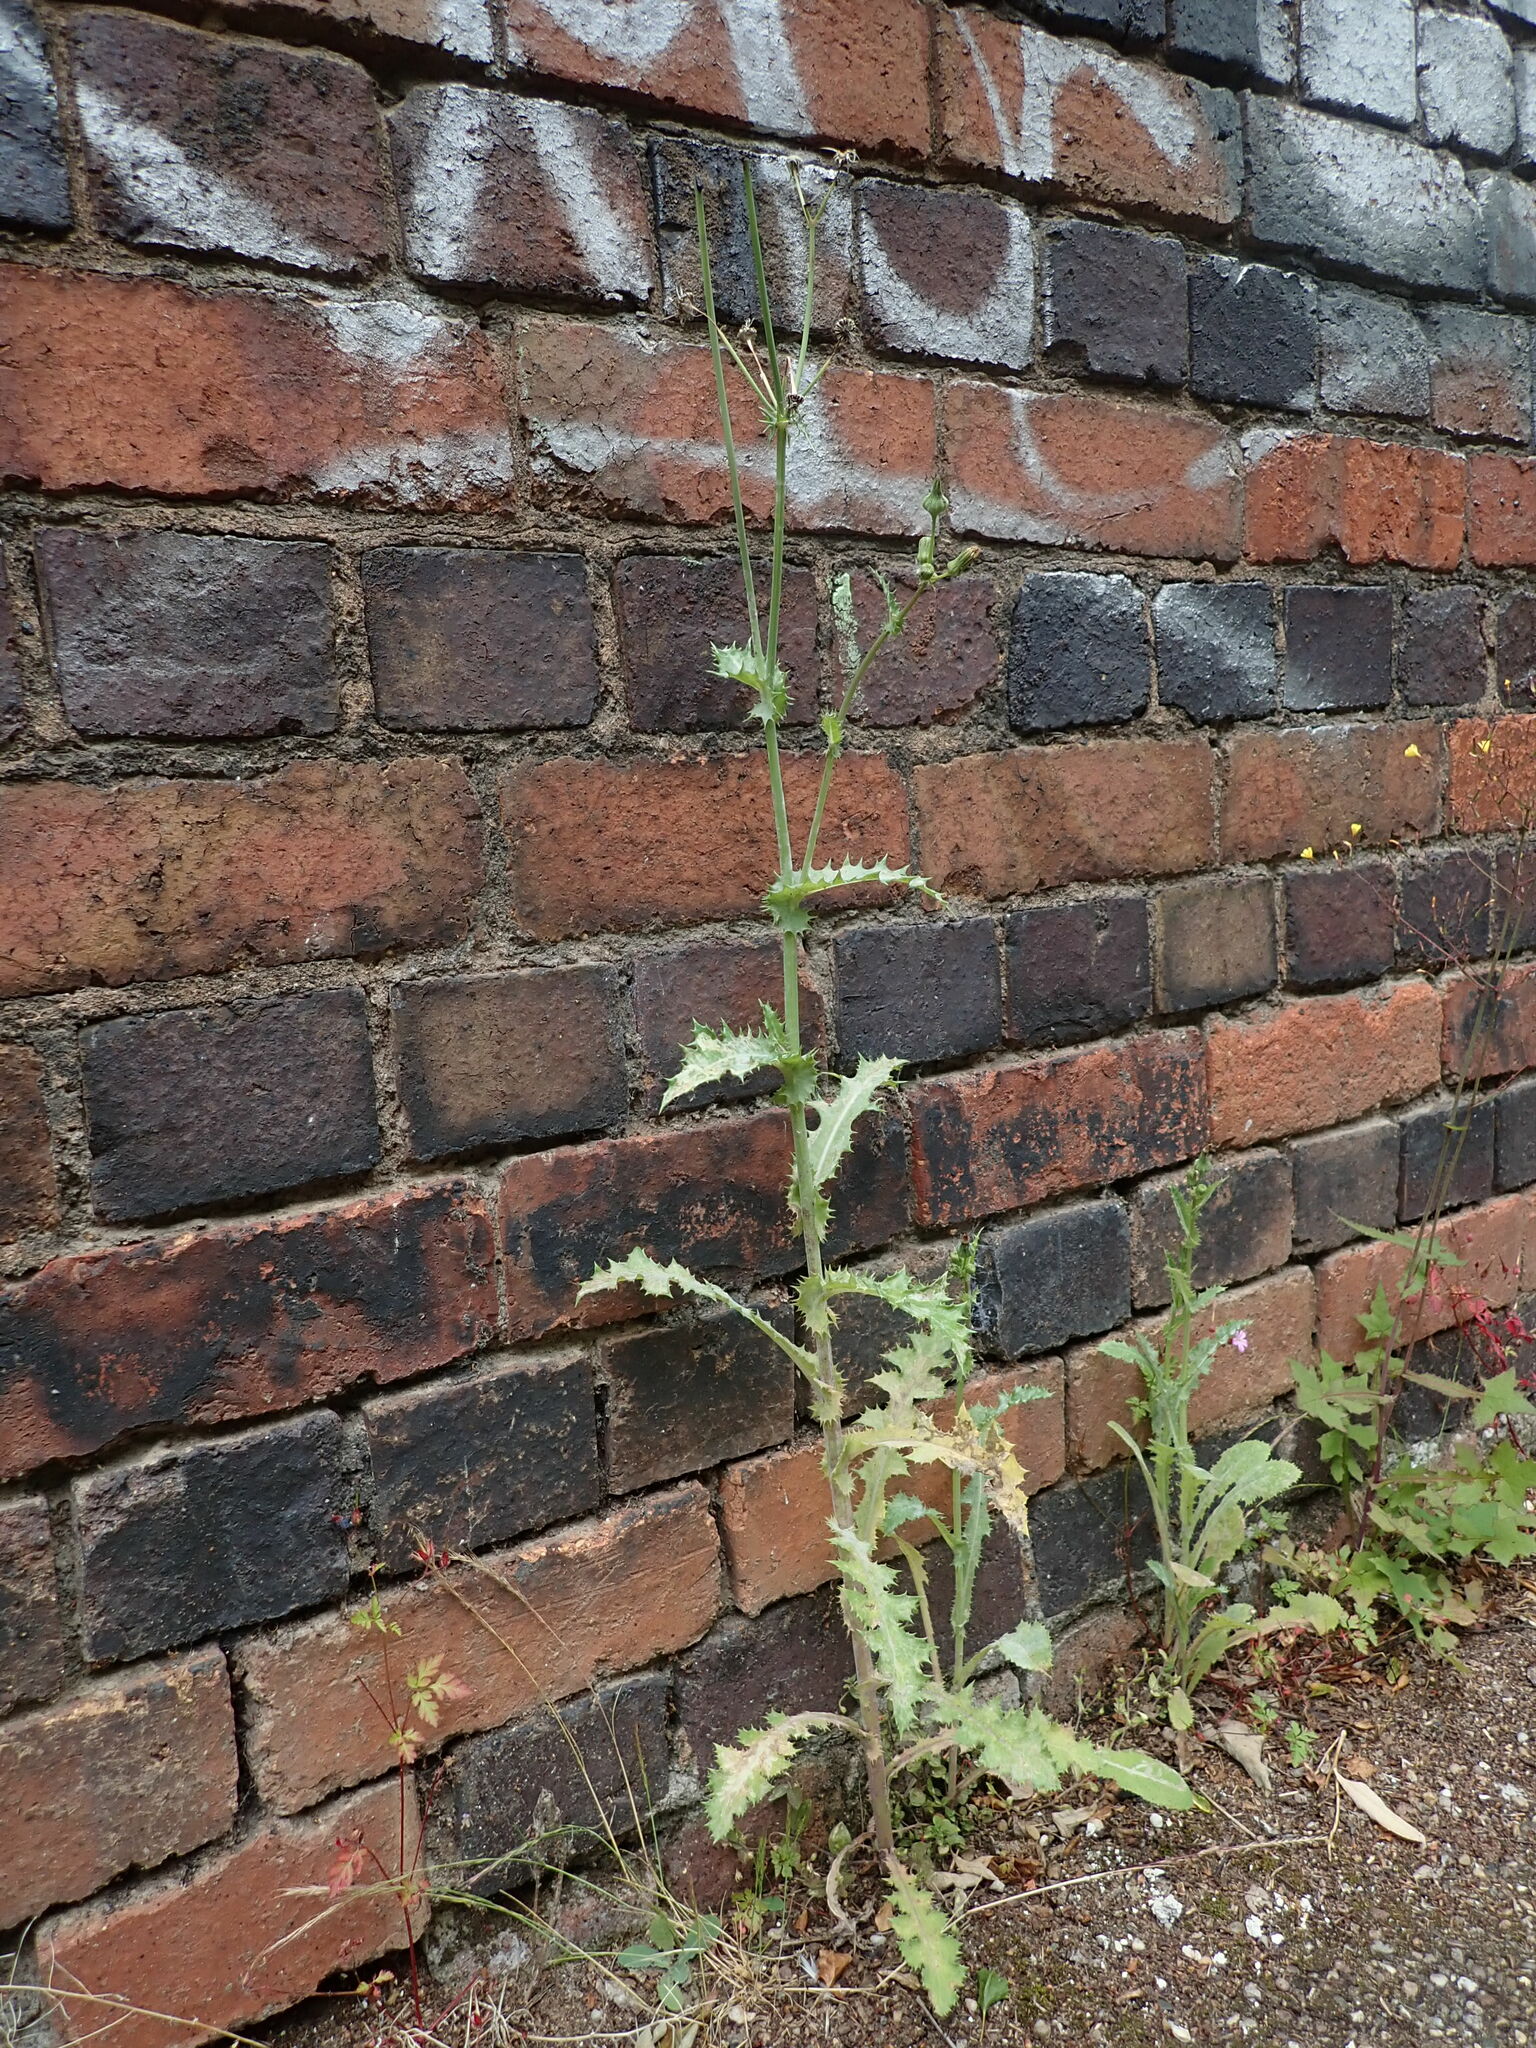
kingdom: Plantae
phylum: Tracheophyta
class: Magnoliopsida
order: Asterales
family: Asteraceae
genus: Sonchus
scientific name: Sonchus asper
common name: Prickly sow-thistle
